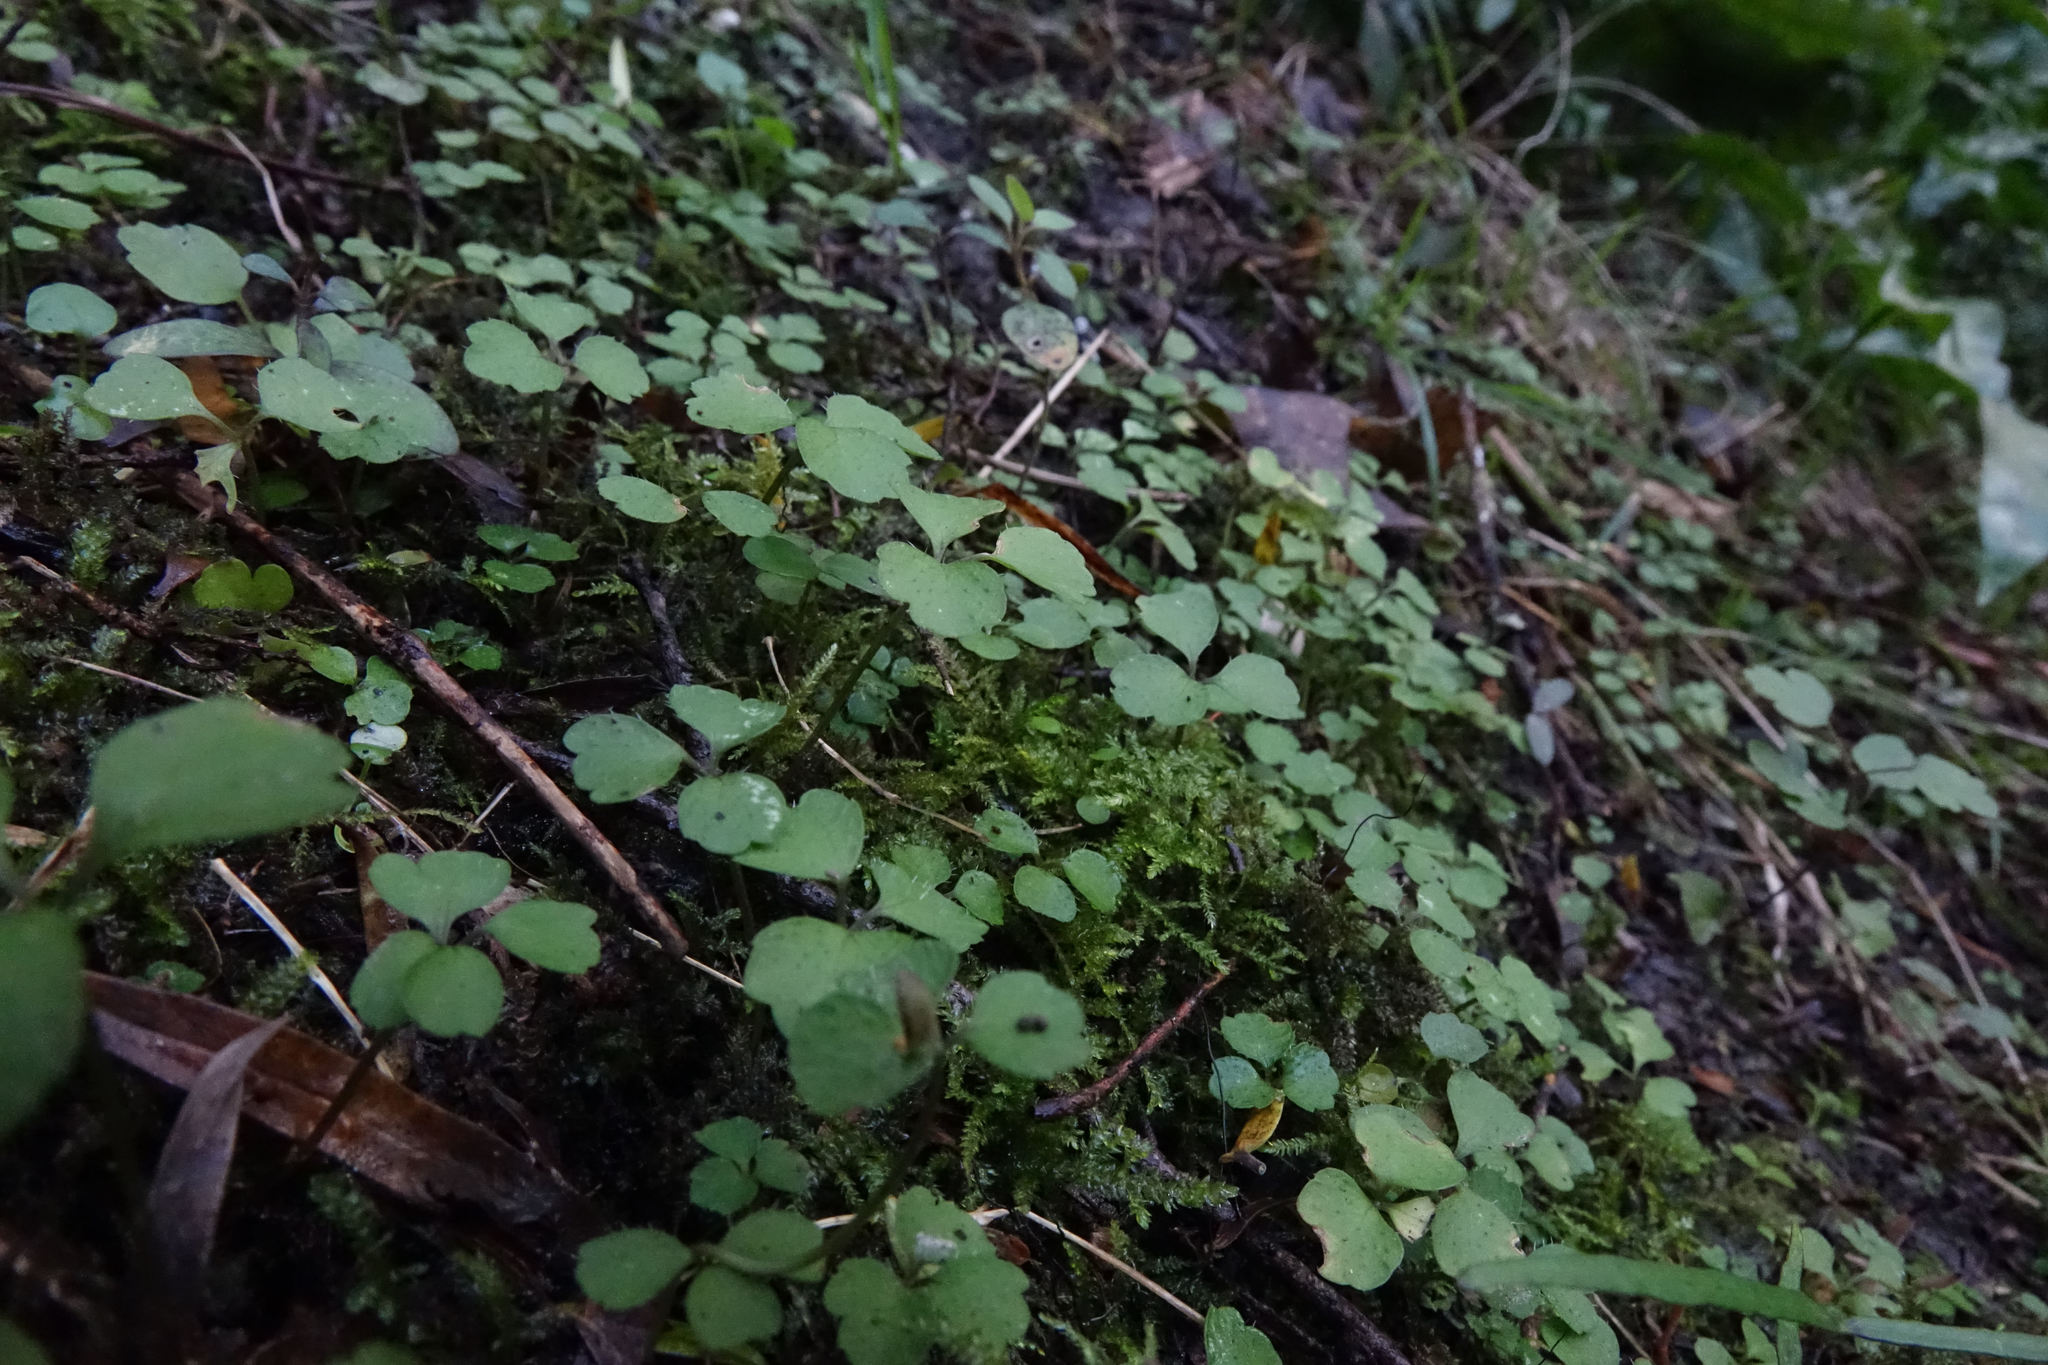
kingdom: Plantae
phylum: Tracheophyta
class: Magnoliopsida
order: Apiales
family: Apiaceae
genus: Azorella
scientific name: Azorella hookeri
